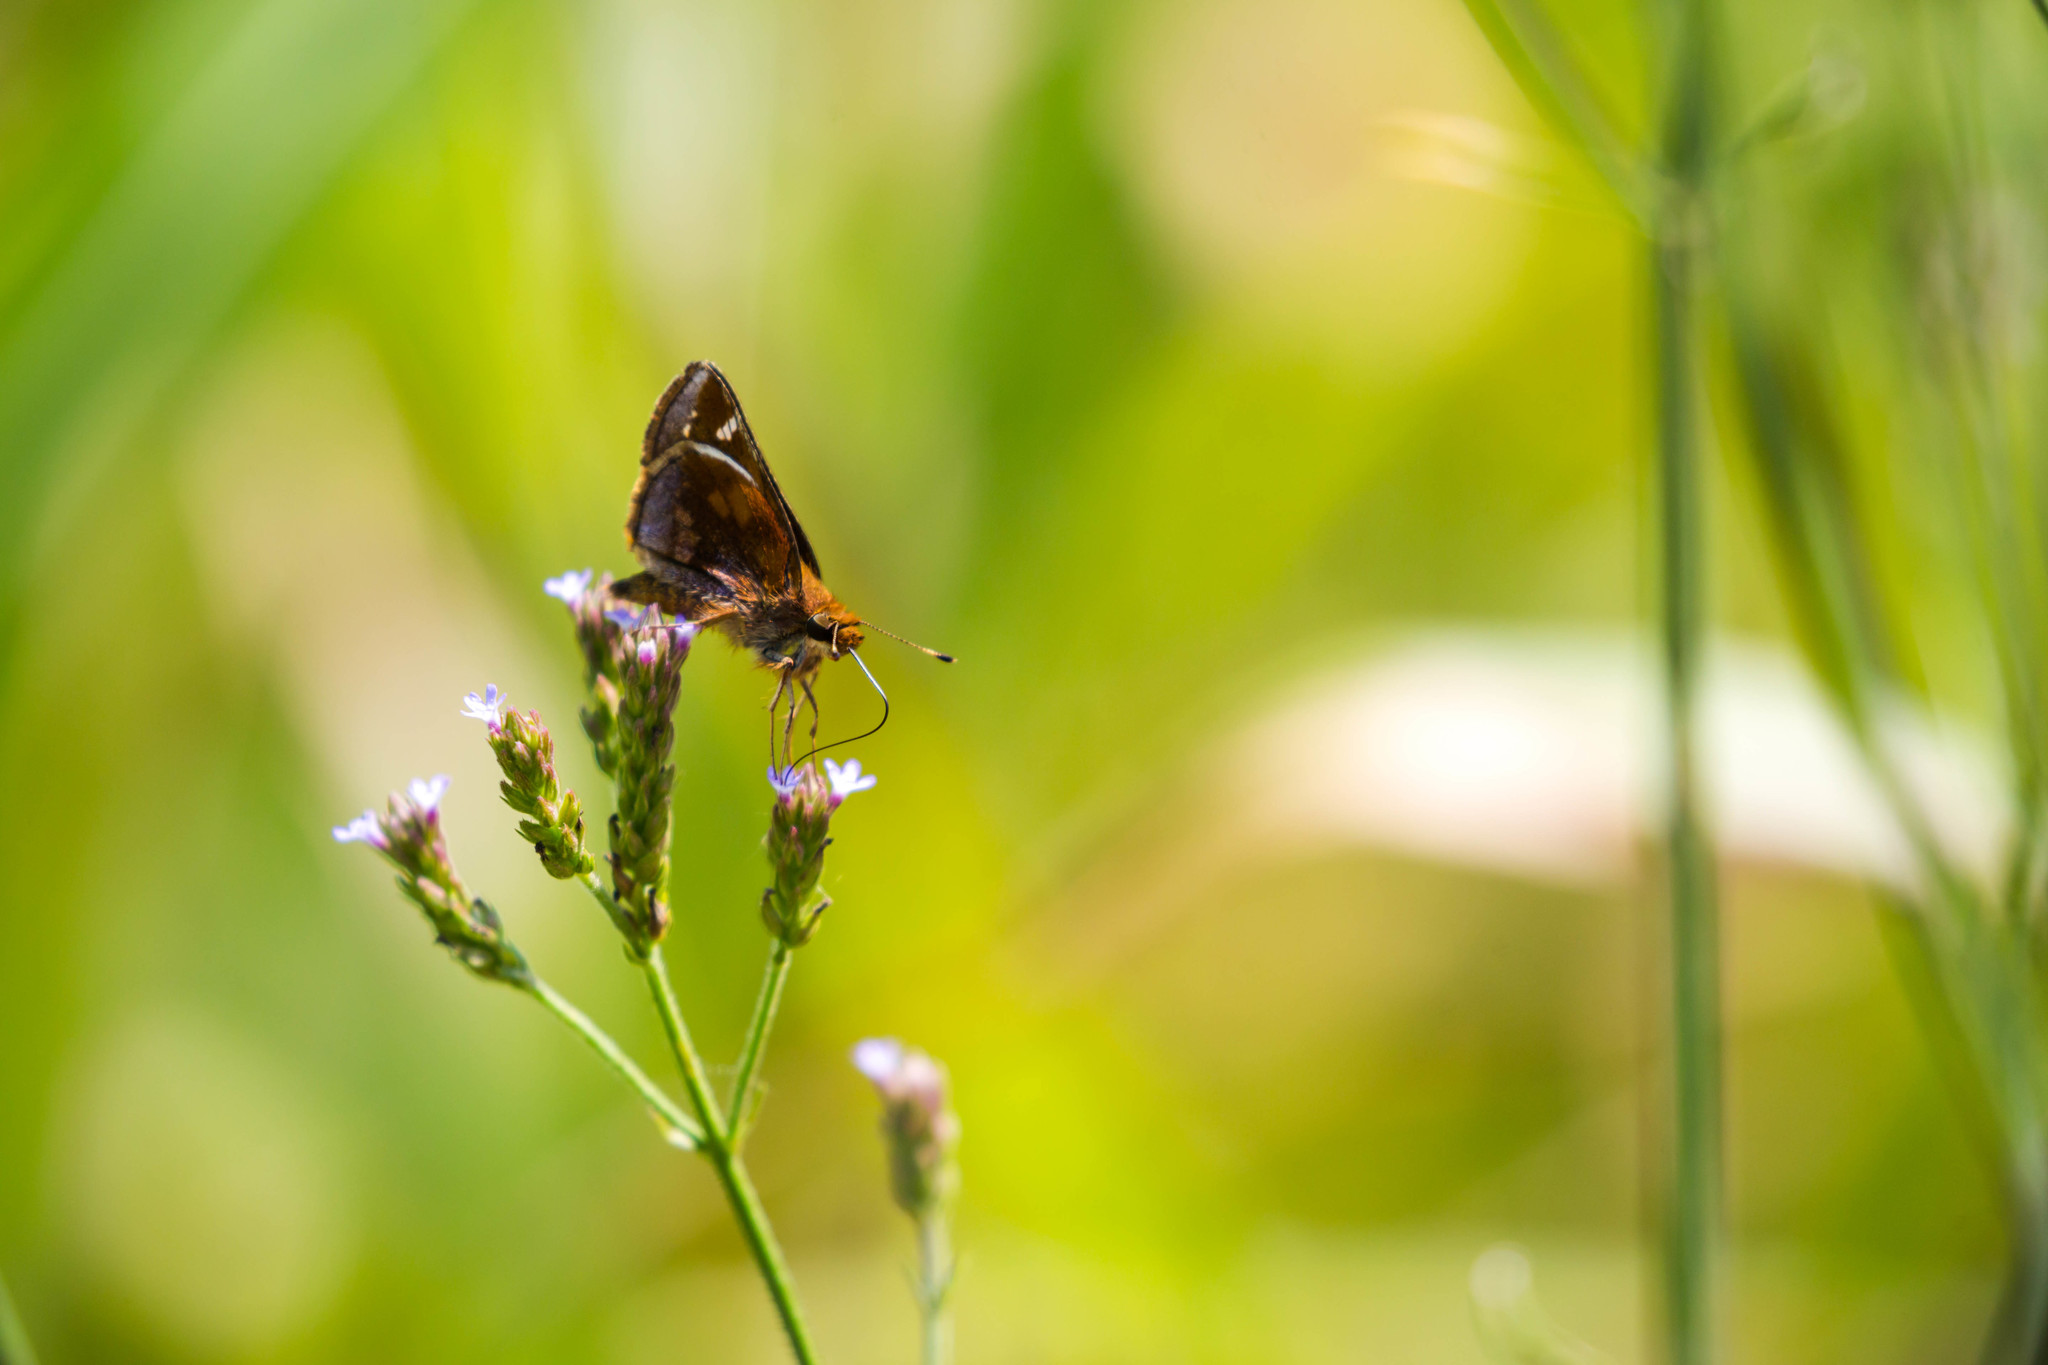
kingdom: Animalia
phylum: Arthropoda
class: Insecta
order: Lepidoptera
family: Hesperiidae
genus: Lon
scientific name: Lon zabulon
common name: Zabulon skipper
